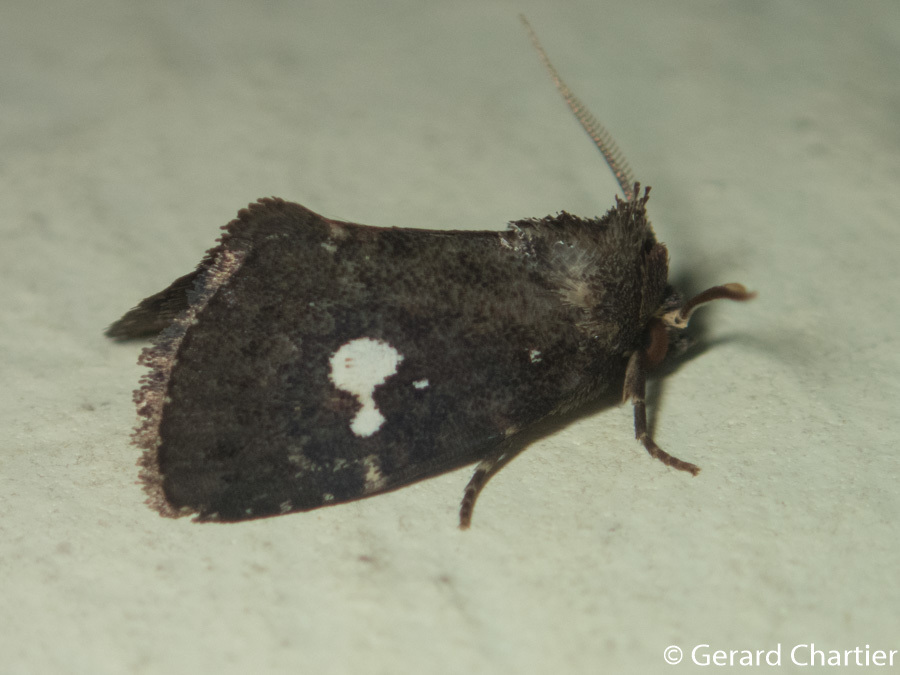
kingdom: Animalia
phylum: Arthropoda
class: Insecta
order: Lepidoptera
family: Noctuidae
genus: Elusa
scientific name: Elusa puncticeps
